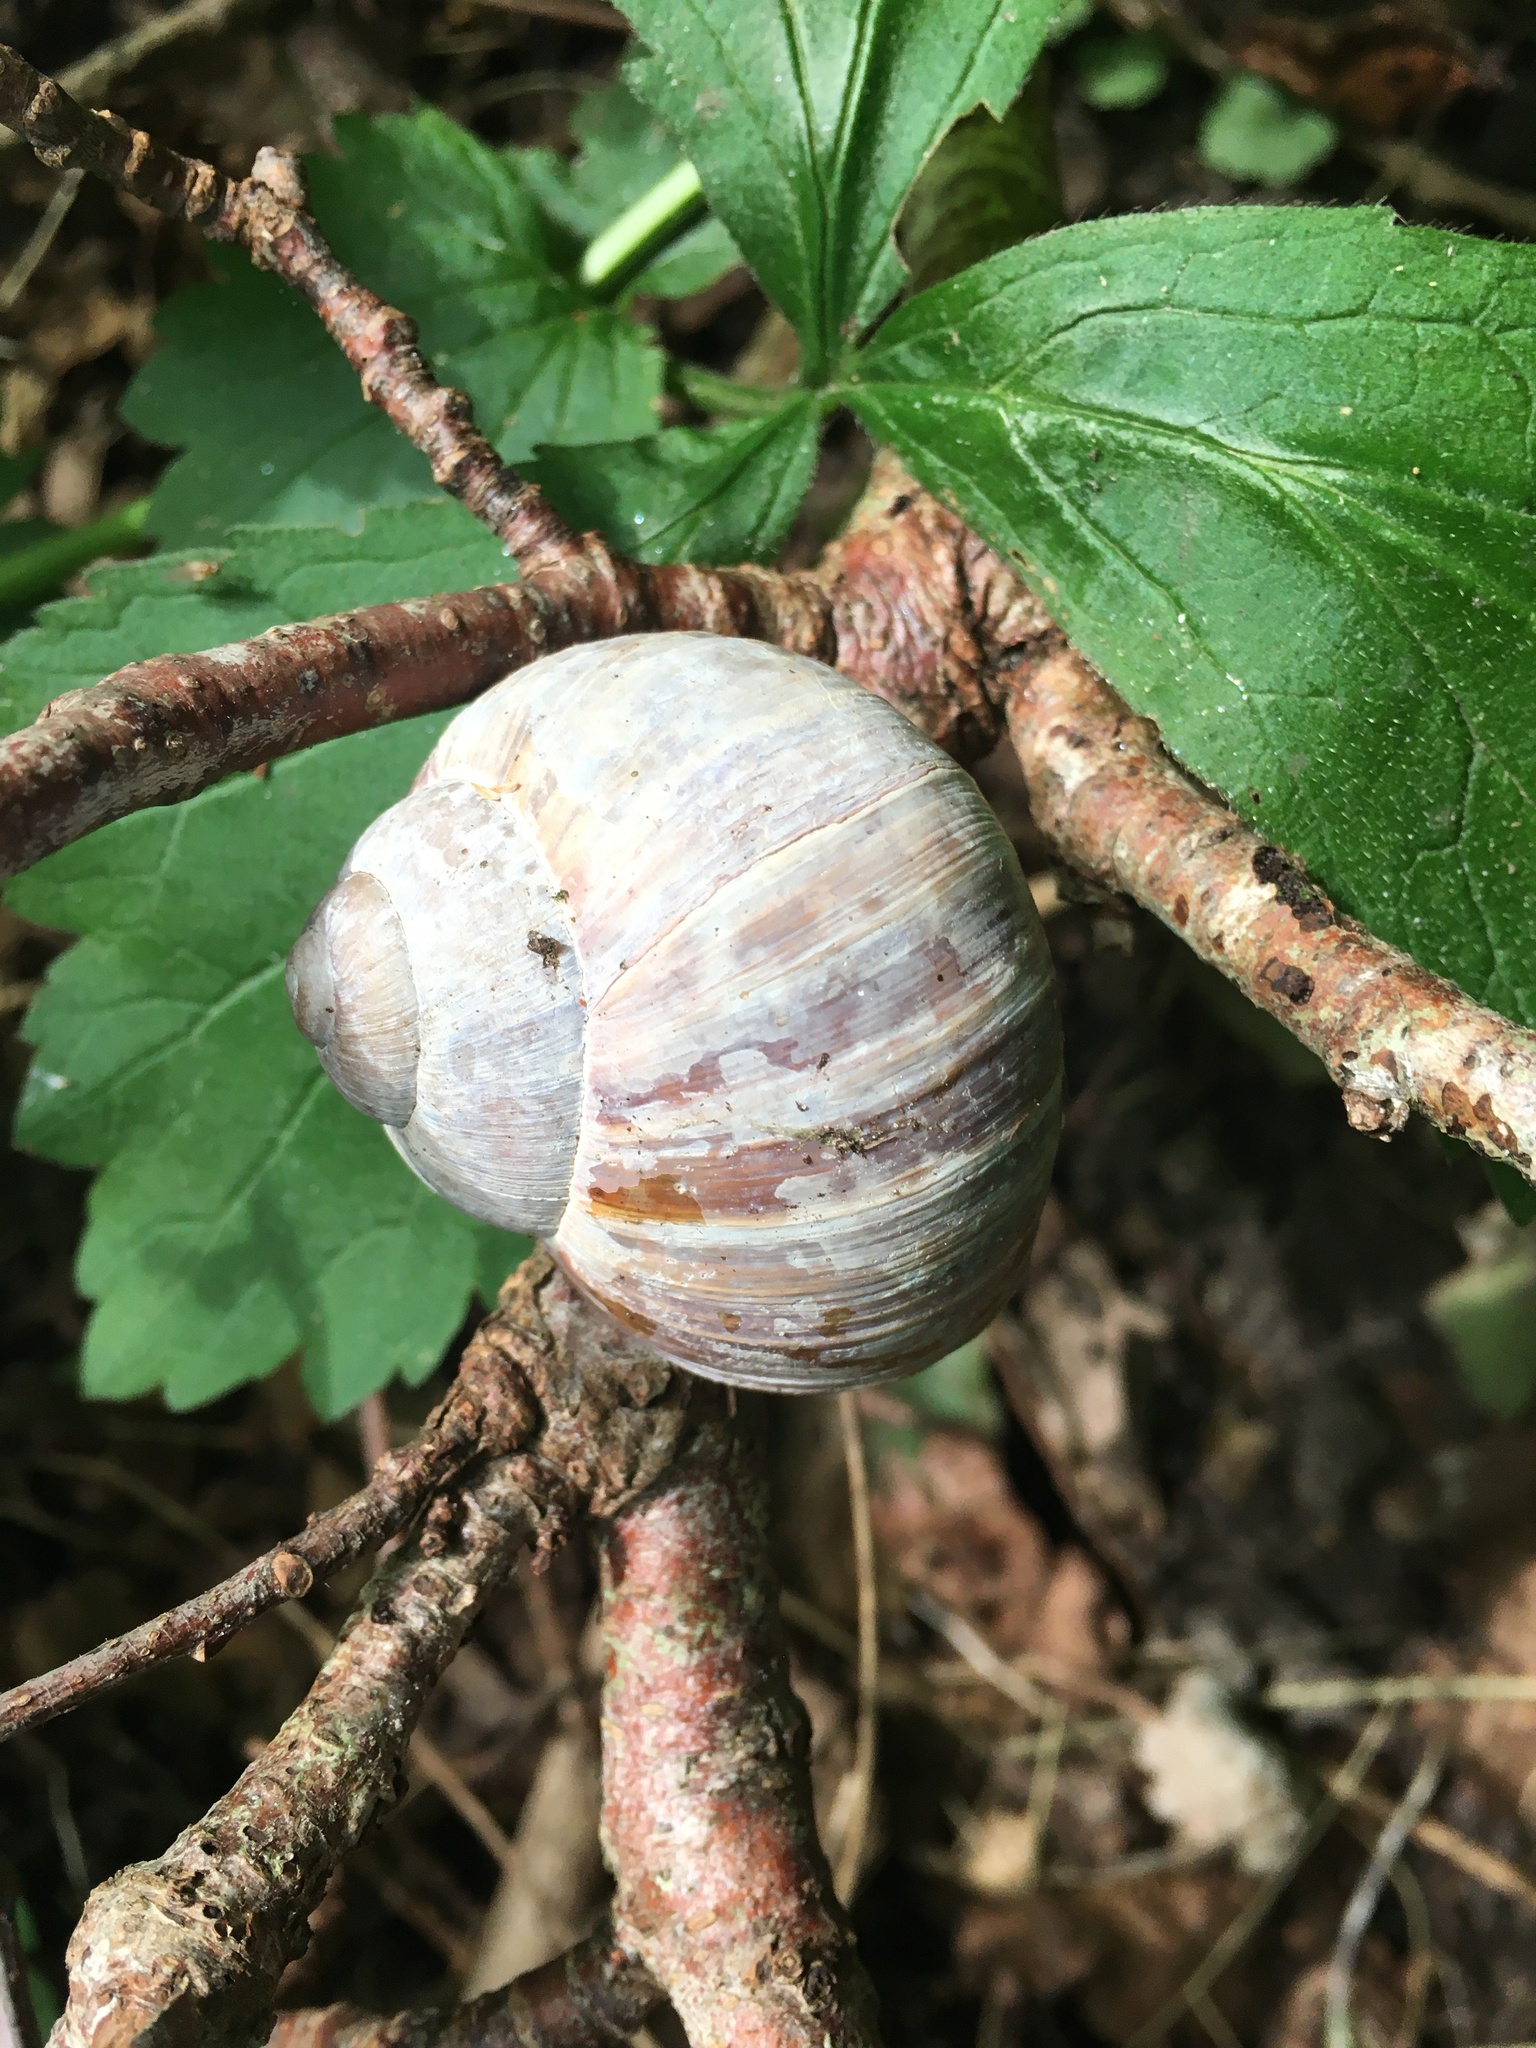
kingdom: Animalia
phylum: Mollusca
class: Gastropoda
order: Stylommatophora
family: Helicidae
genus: Helix
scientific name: Helix pomatia
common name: Roman snail
